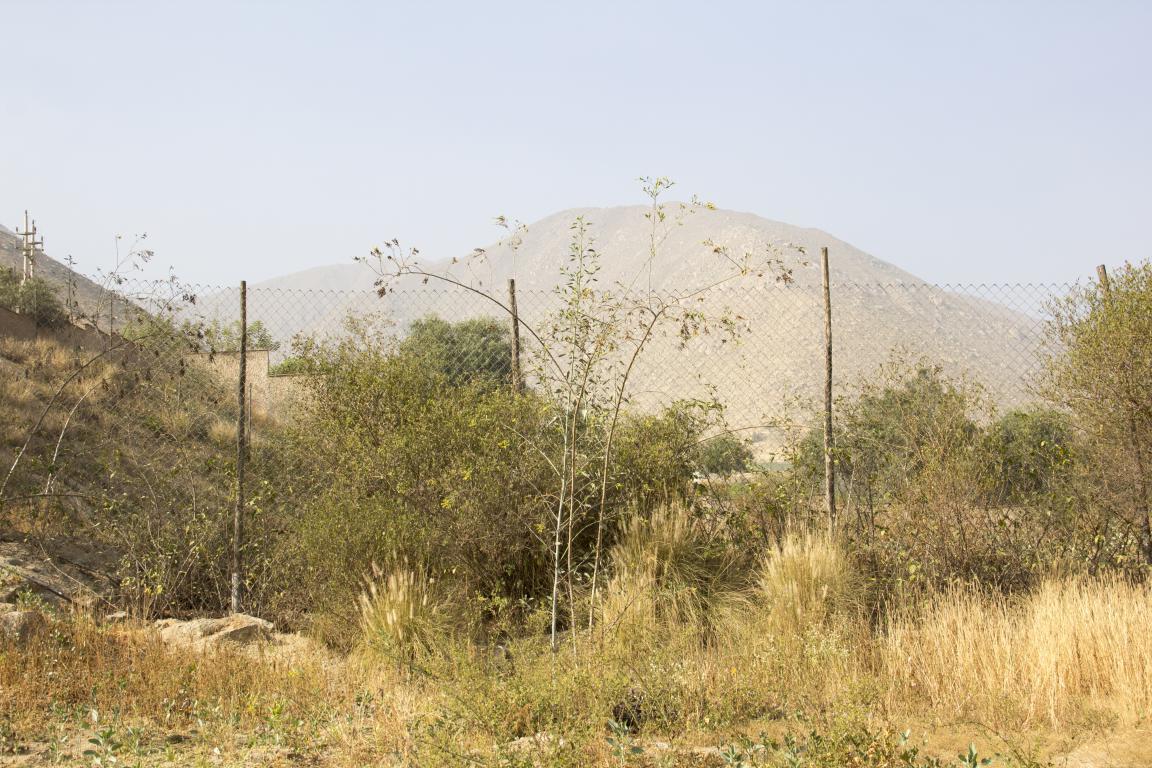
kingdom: Plantae
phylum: Tracheophyta
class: Magnoliopsida
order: Solanales
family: Solanaceae
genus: Nicotiana
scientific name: Nicotiana glauca
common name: Tree tobacco
